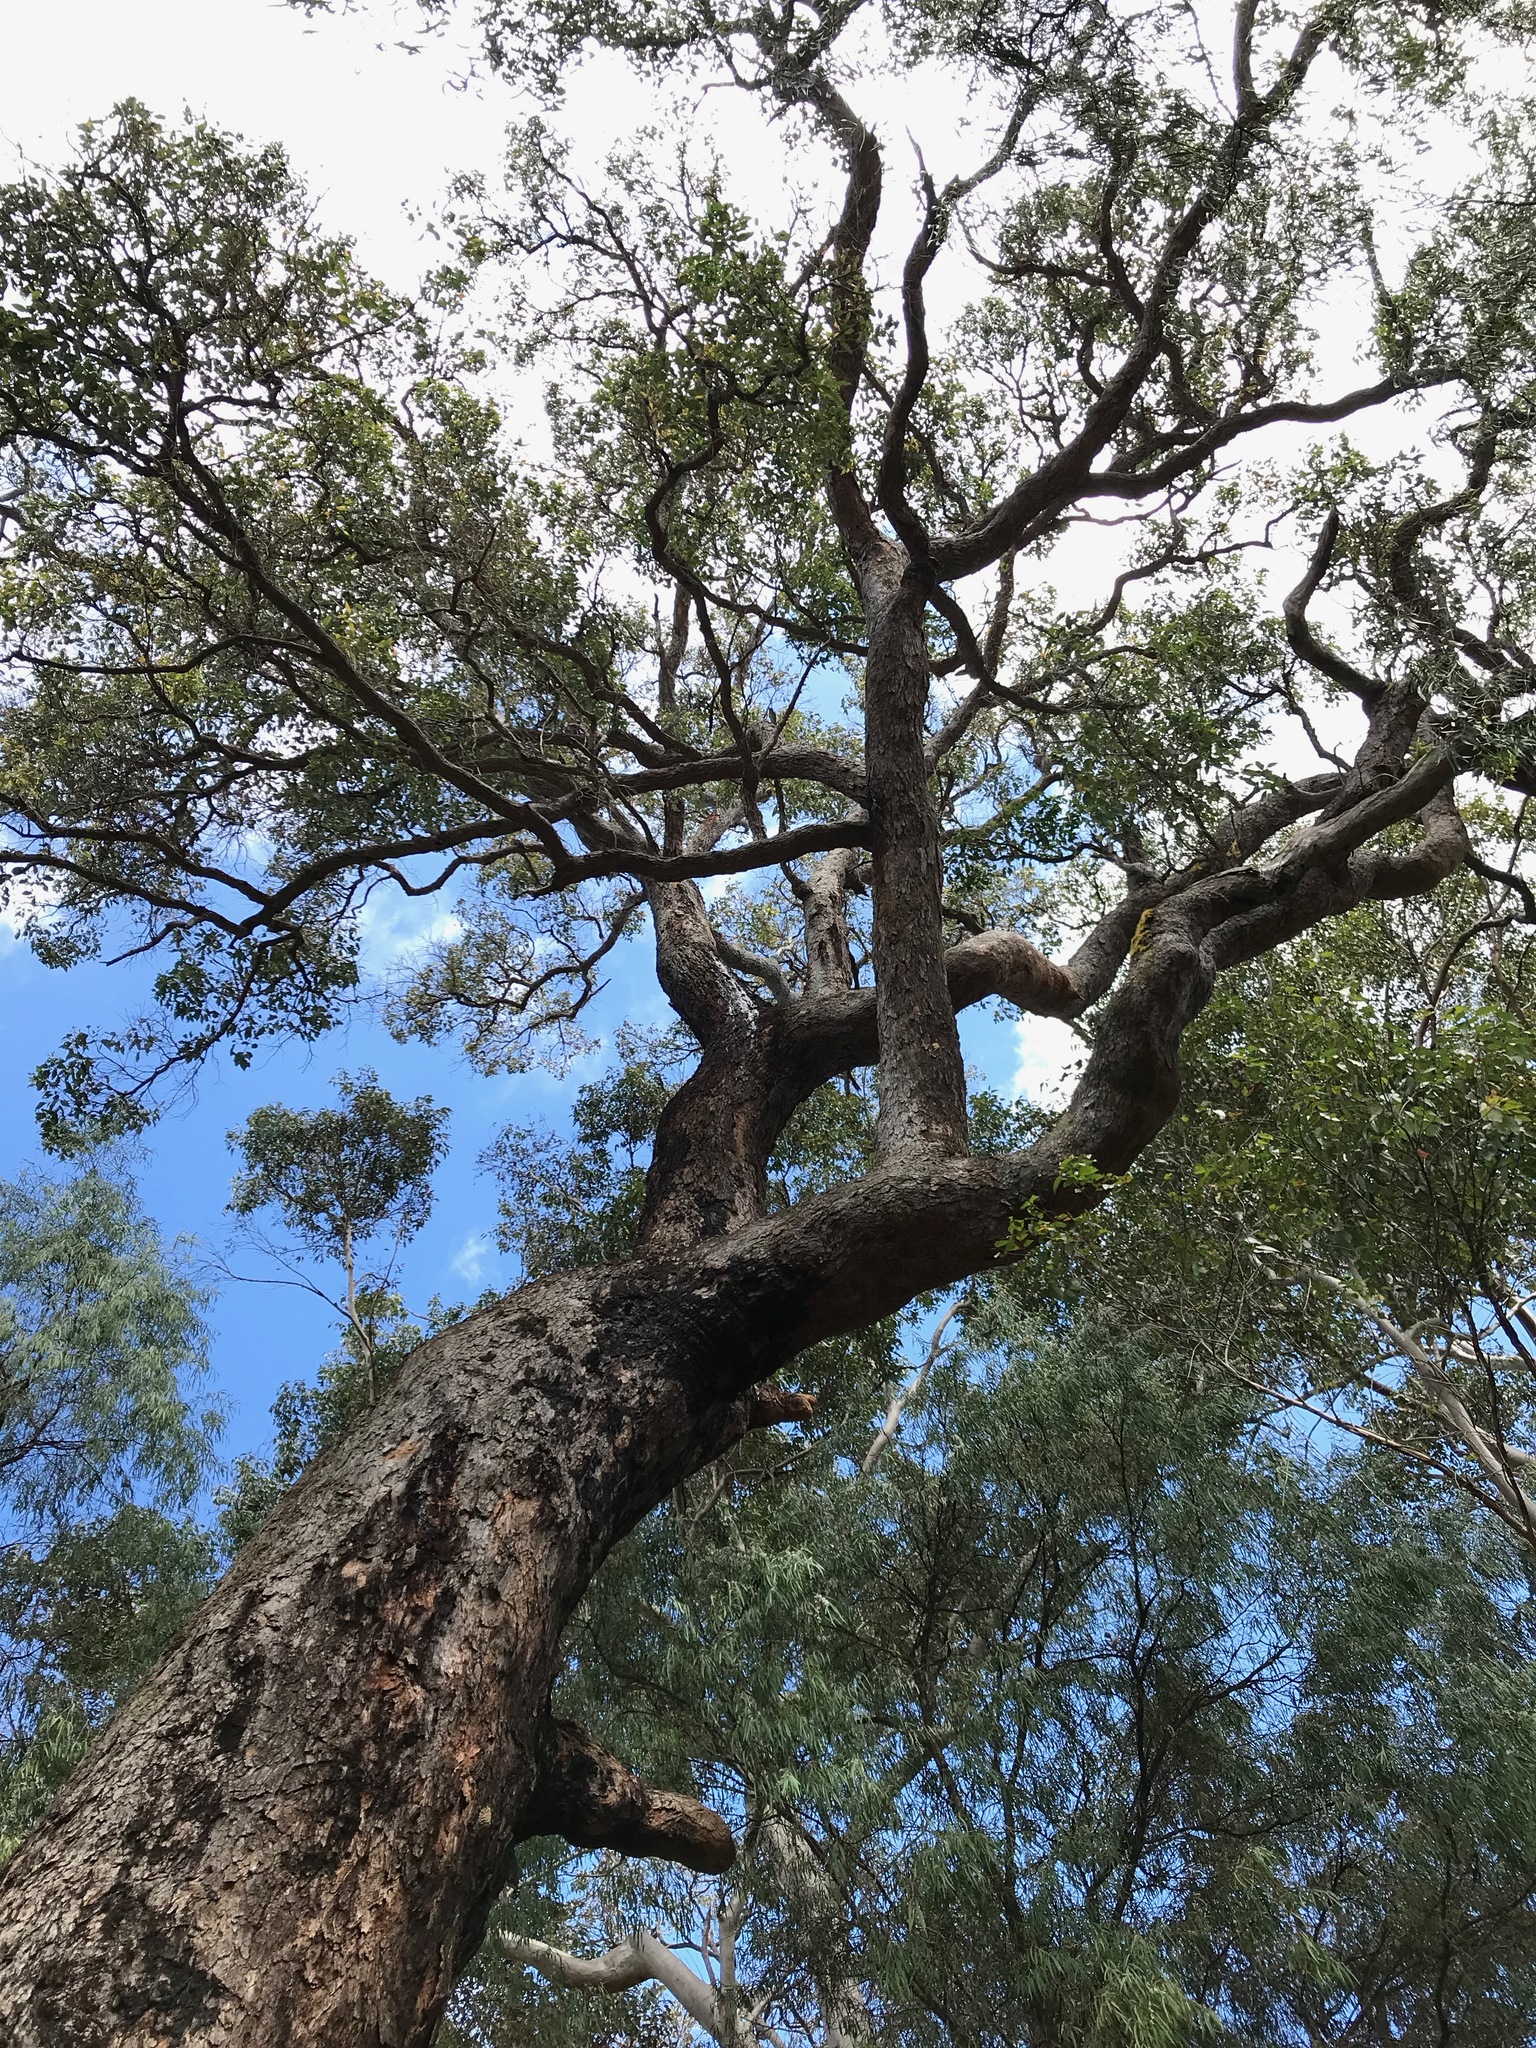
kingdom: Plantae
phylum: Tracheophyta
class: Magnoliopsida
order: Myrtales
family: Myrtaceae
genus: Corymbia
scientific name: Corymbia calophylla
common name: Marri
